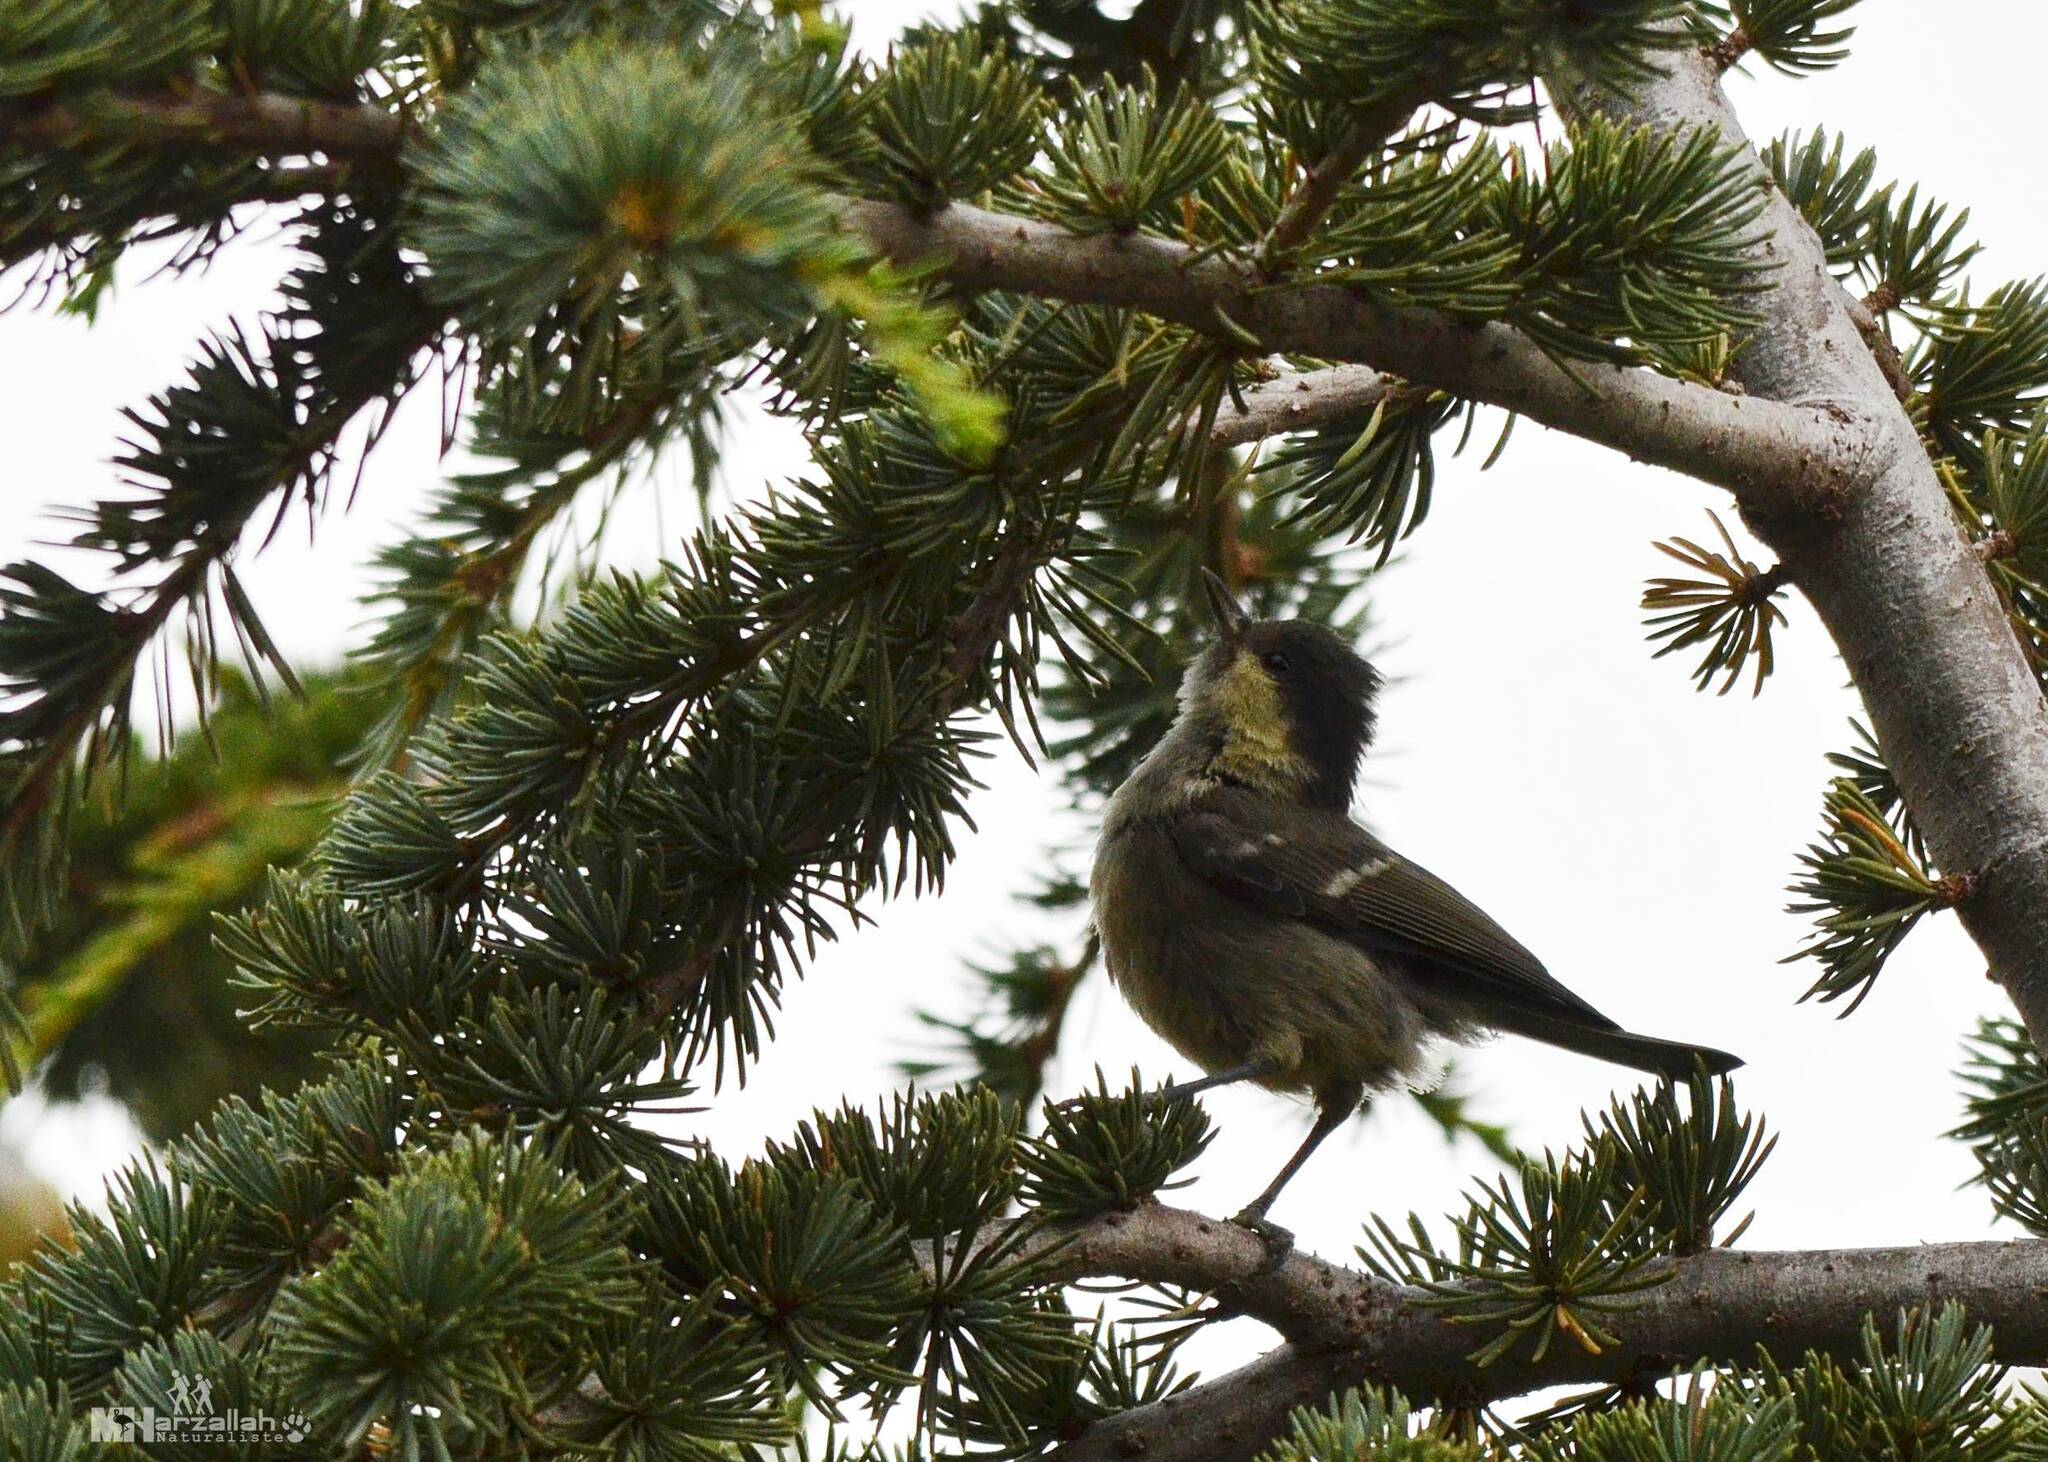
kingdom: Animalia
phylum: Chordata
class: Aves
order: Passeriformes
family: Paridae
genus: Periparus
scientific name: Periparus ater
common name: Coal tit
